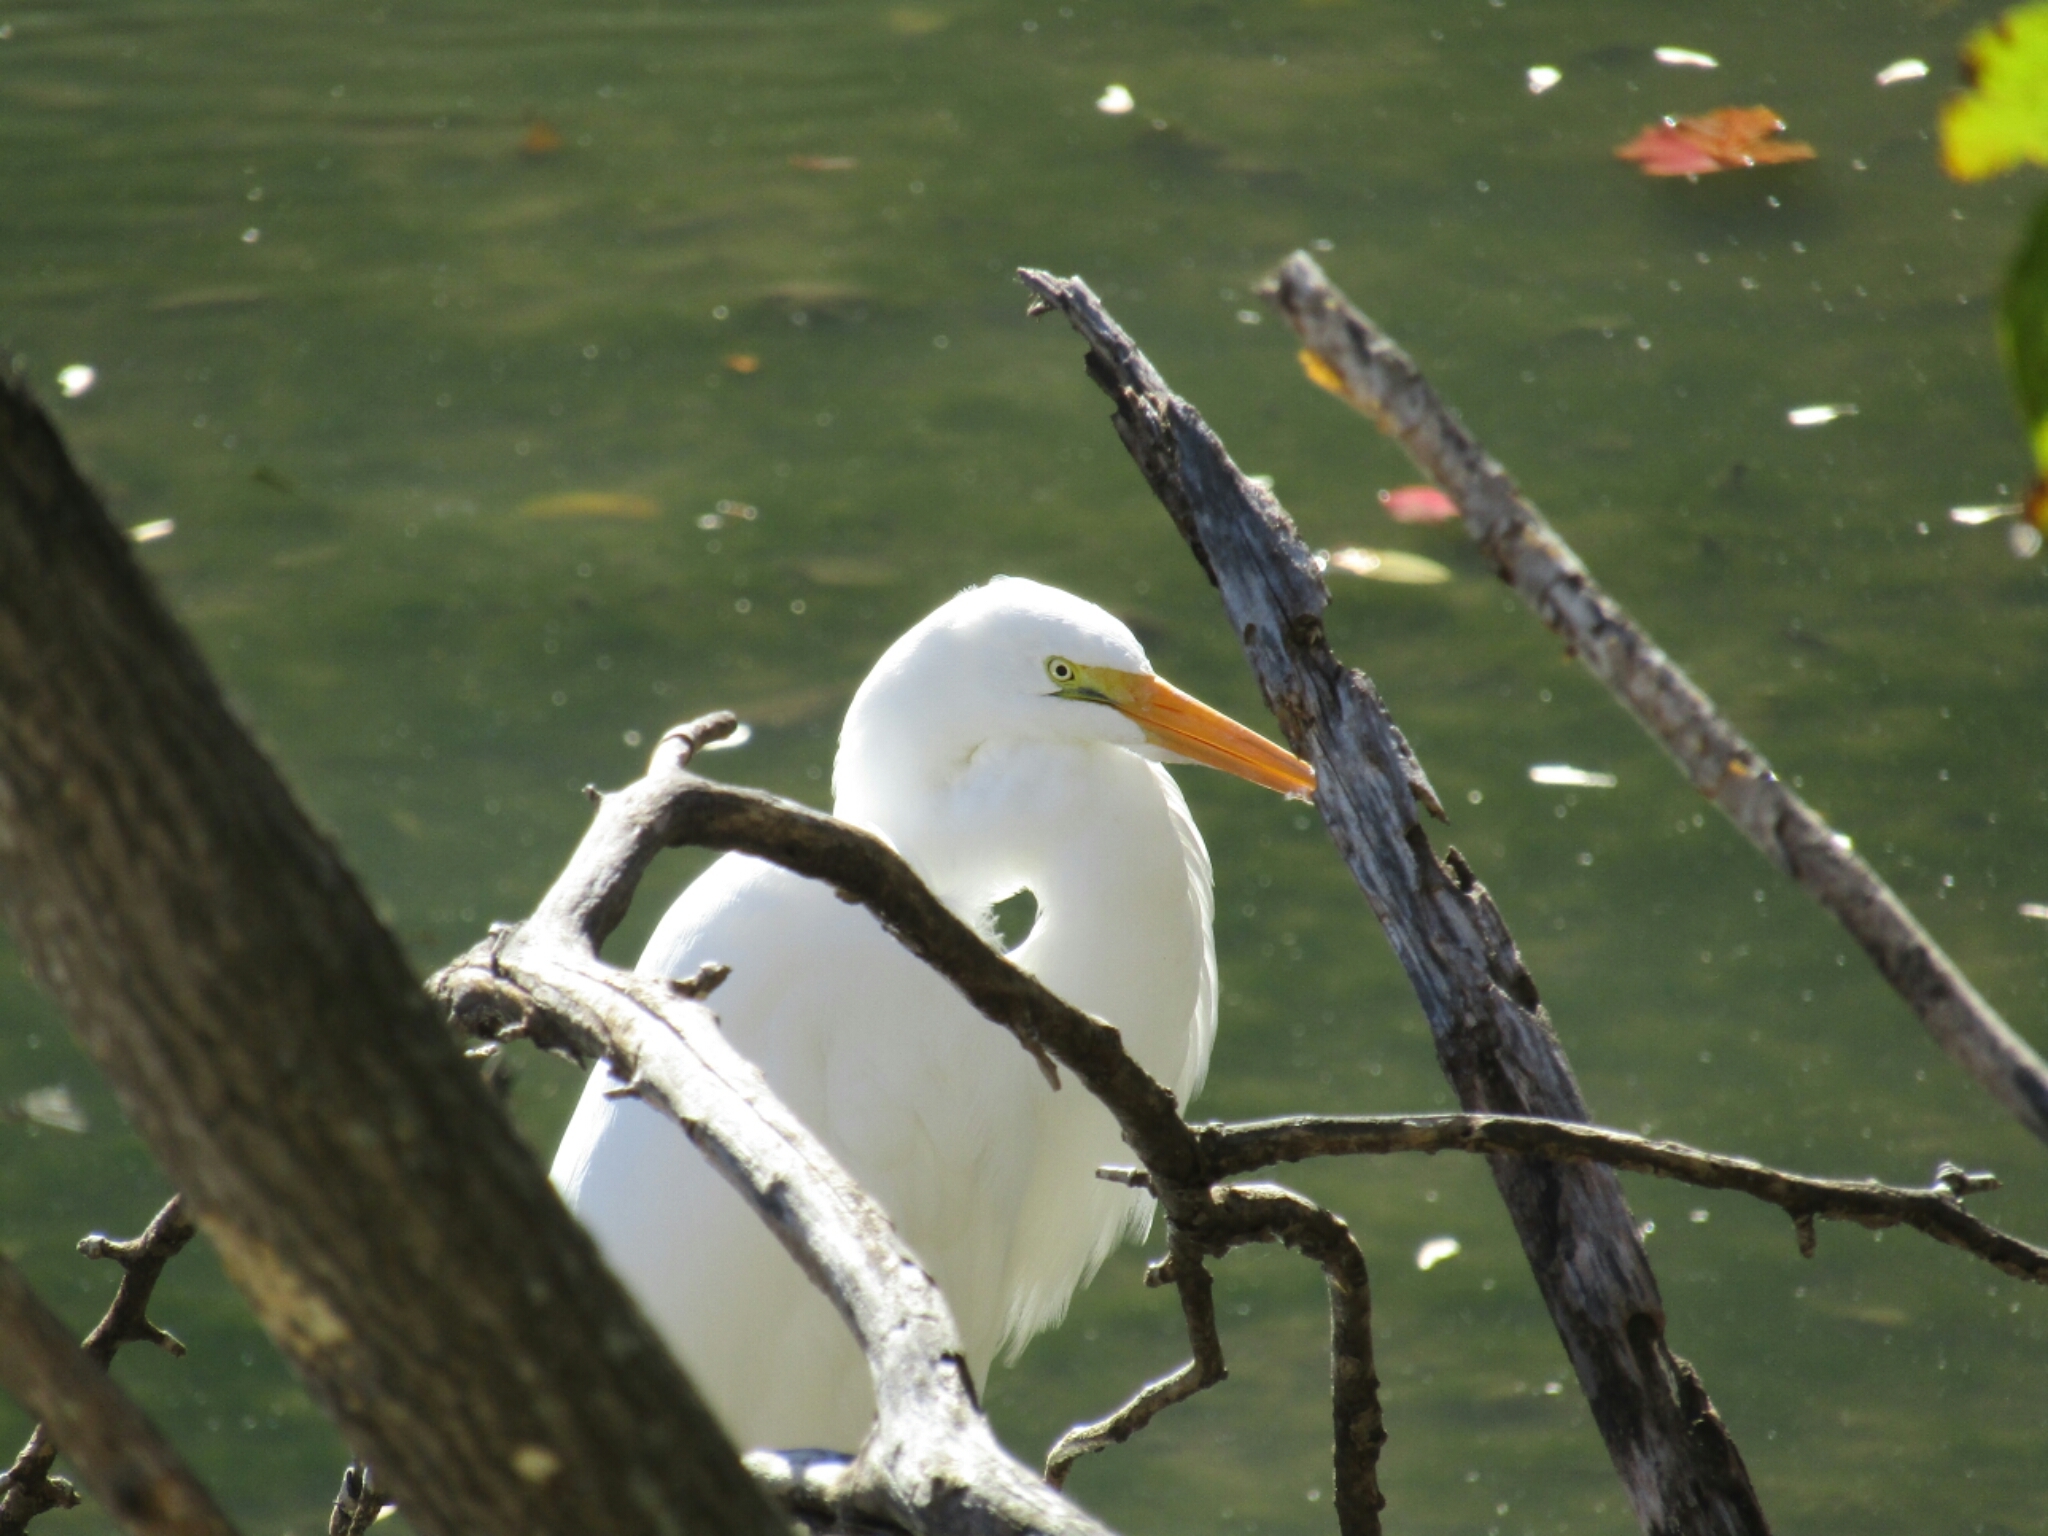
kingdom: Animalia
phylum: Chordata
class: Aves
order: Pelecaniformes
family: Ardeidae
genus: Ardea
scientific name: Ardea alba
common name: Great egret
